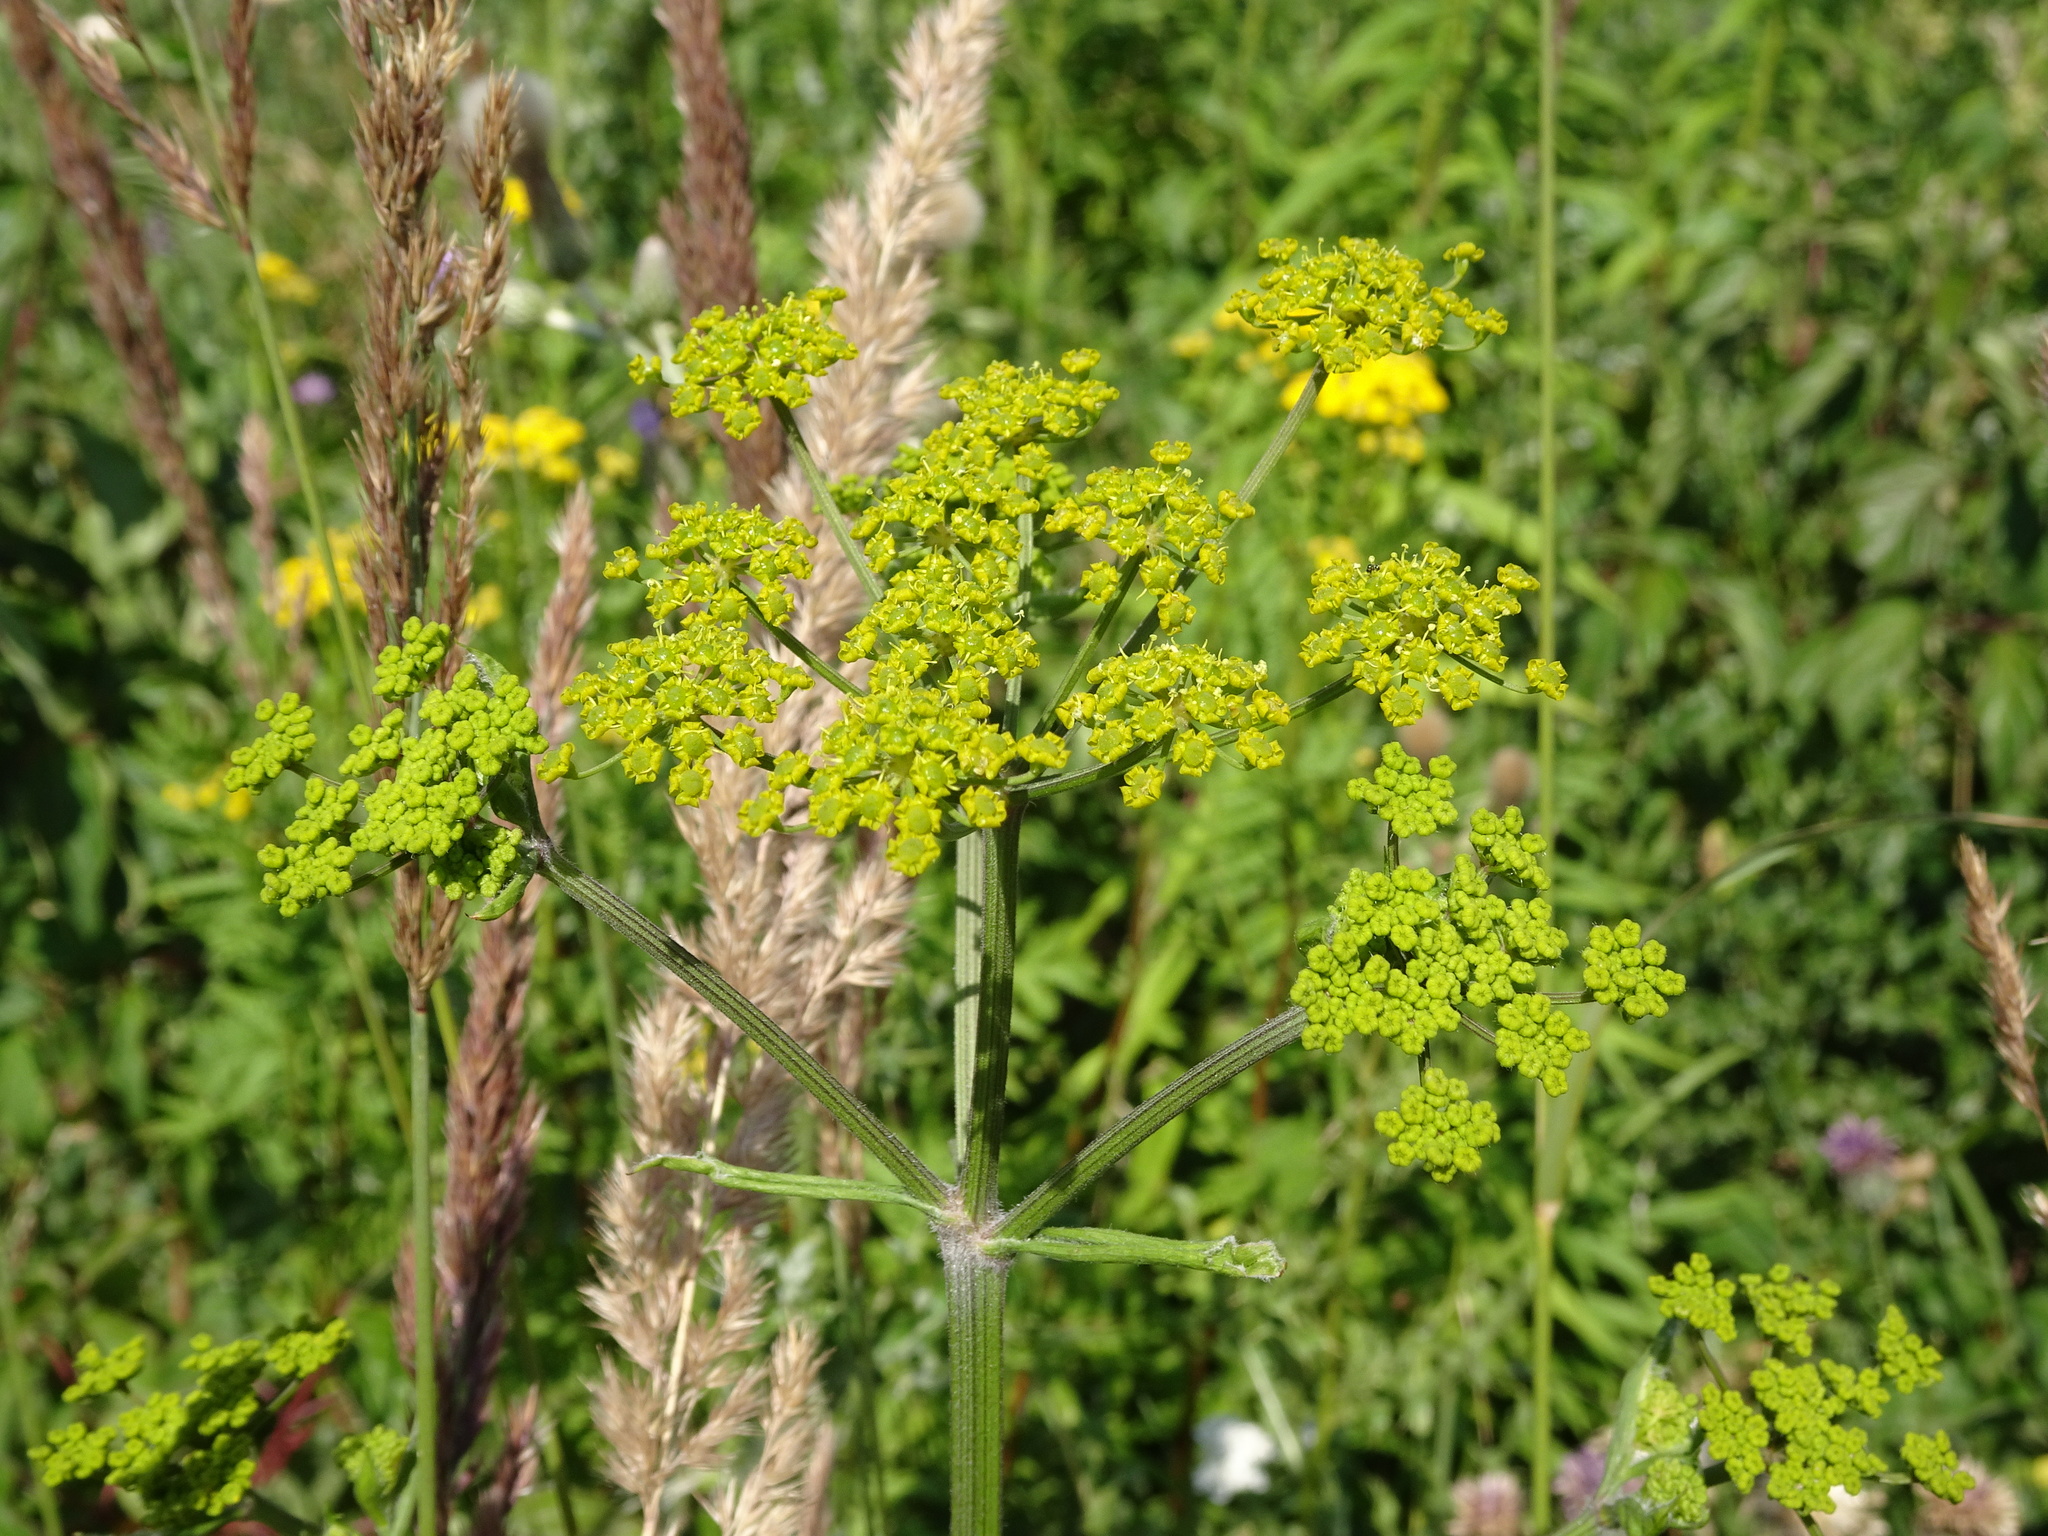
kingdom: Plantae
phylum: Tracheophyta
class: Magnoliopsida
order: Apiales
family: Apiaceae
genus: Pastinaca
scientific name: Pastinaca sativa
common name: Wild parsnip
